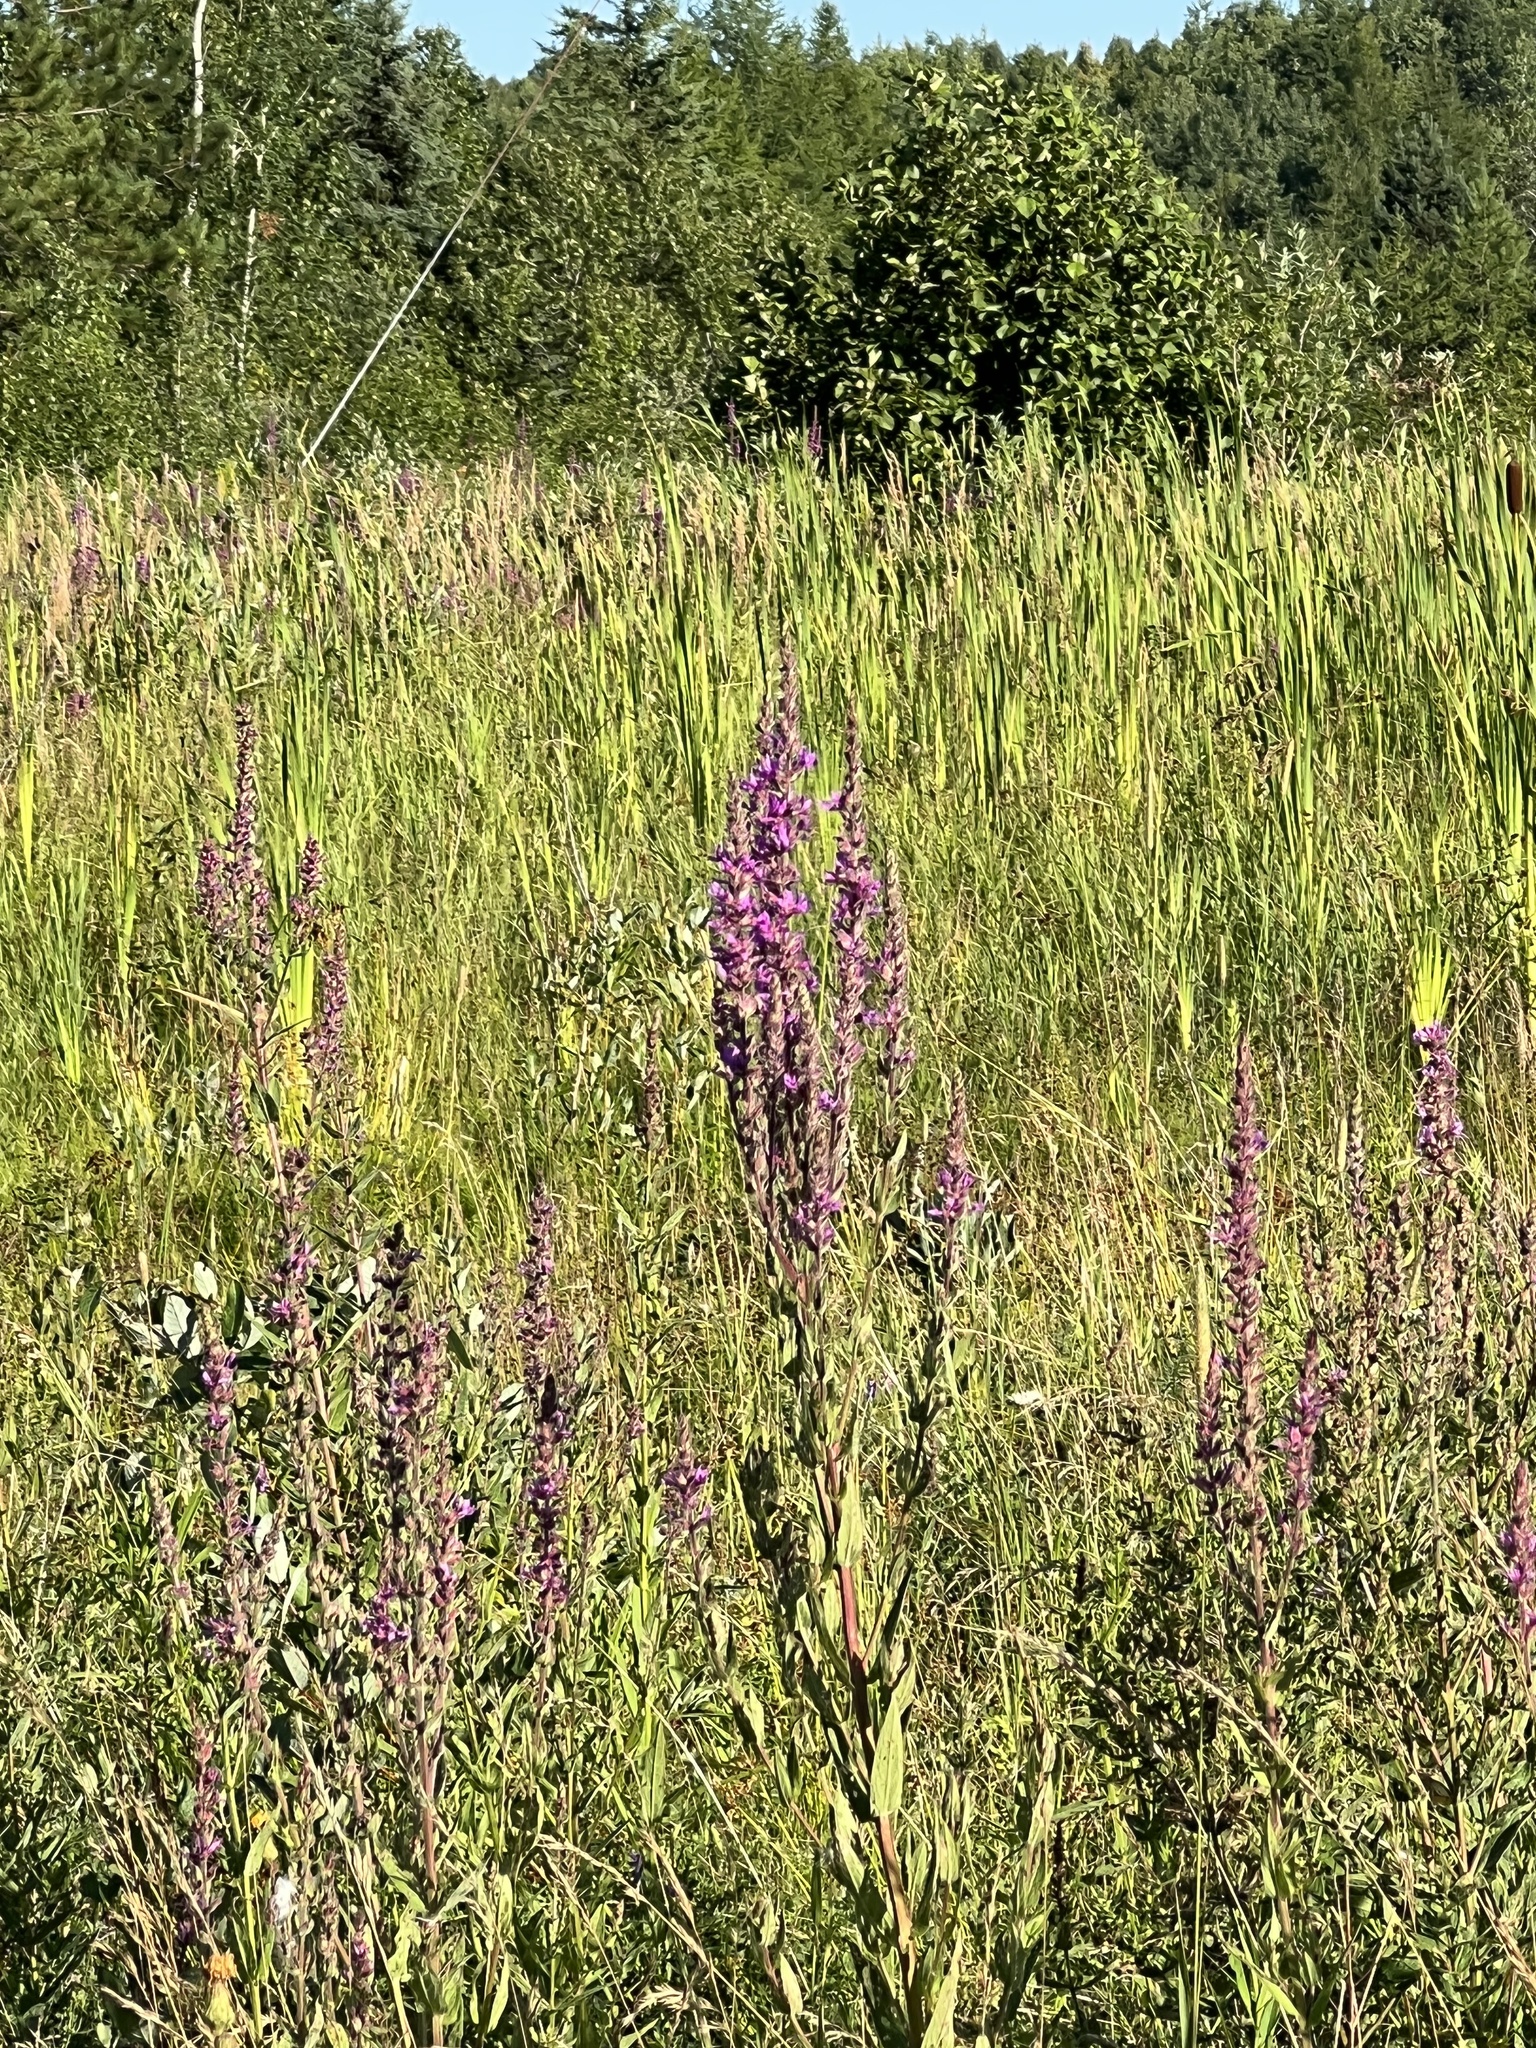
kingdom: Plantae
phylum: Tracheophyta
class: Magnoliopsida
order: Myrtales
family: Lythraceae
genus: Lythrum
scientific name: Lythrum salicaria
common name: Purple loosestrife
